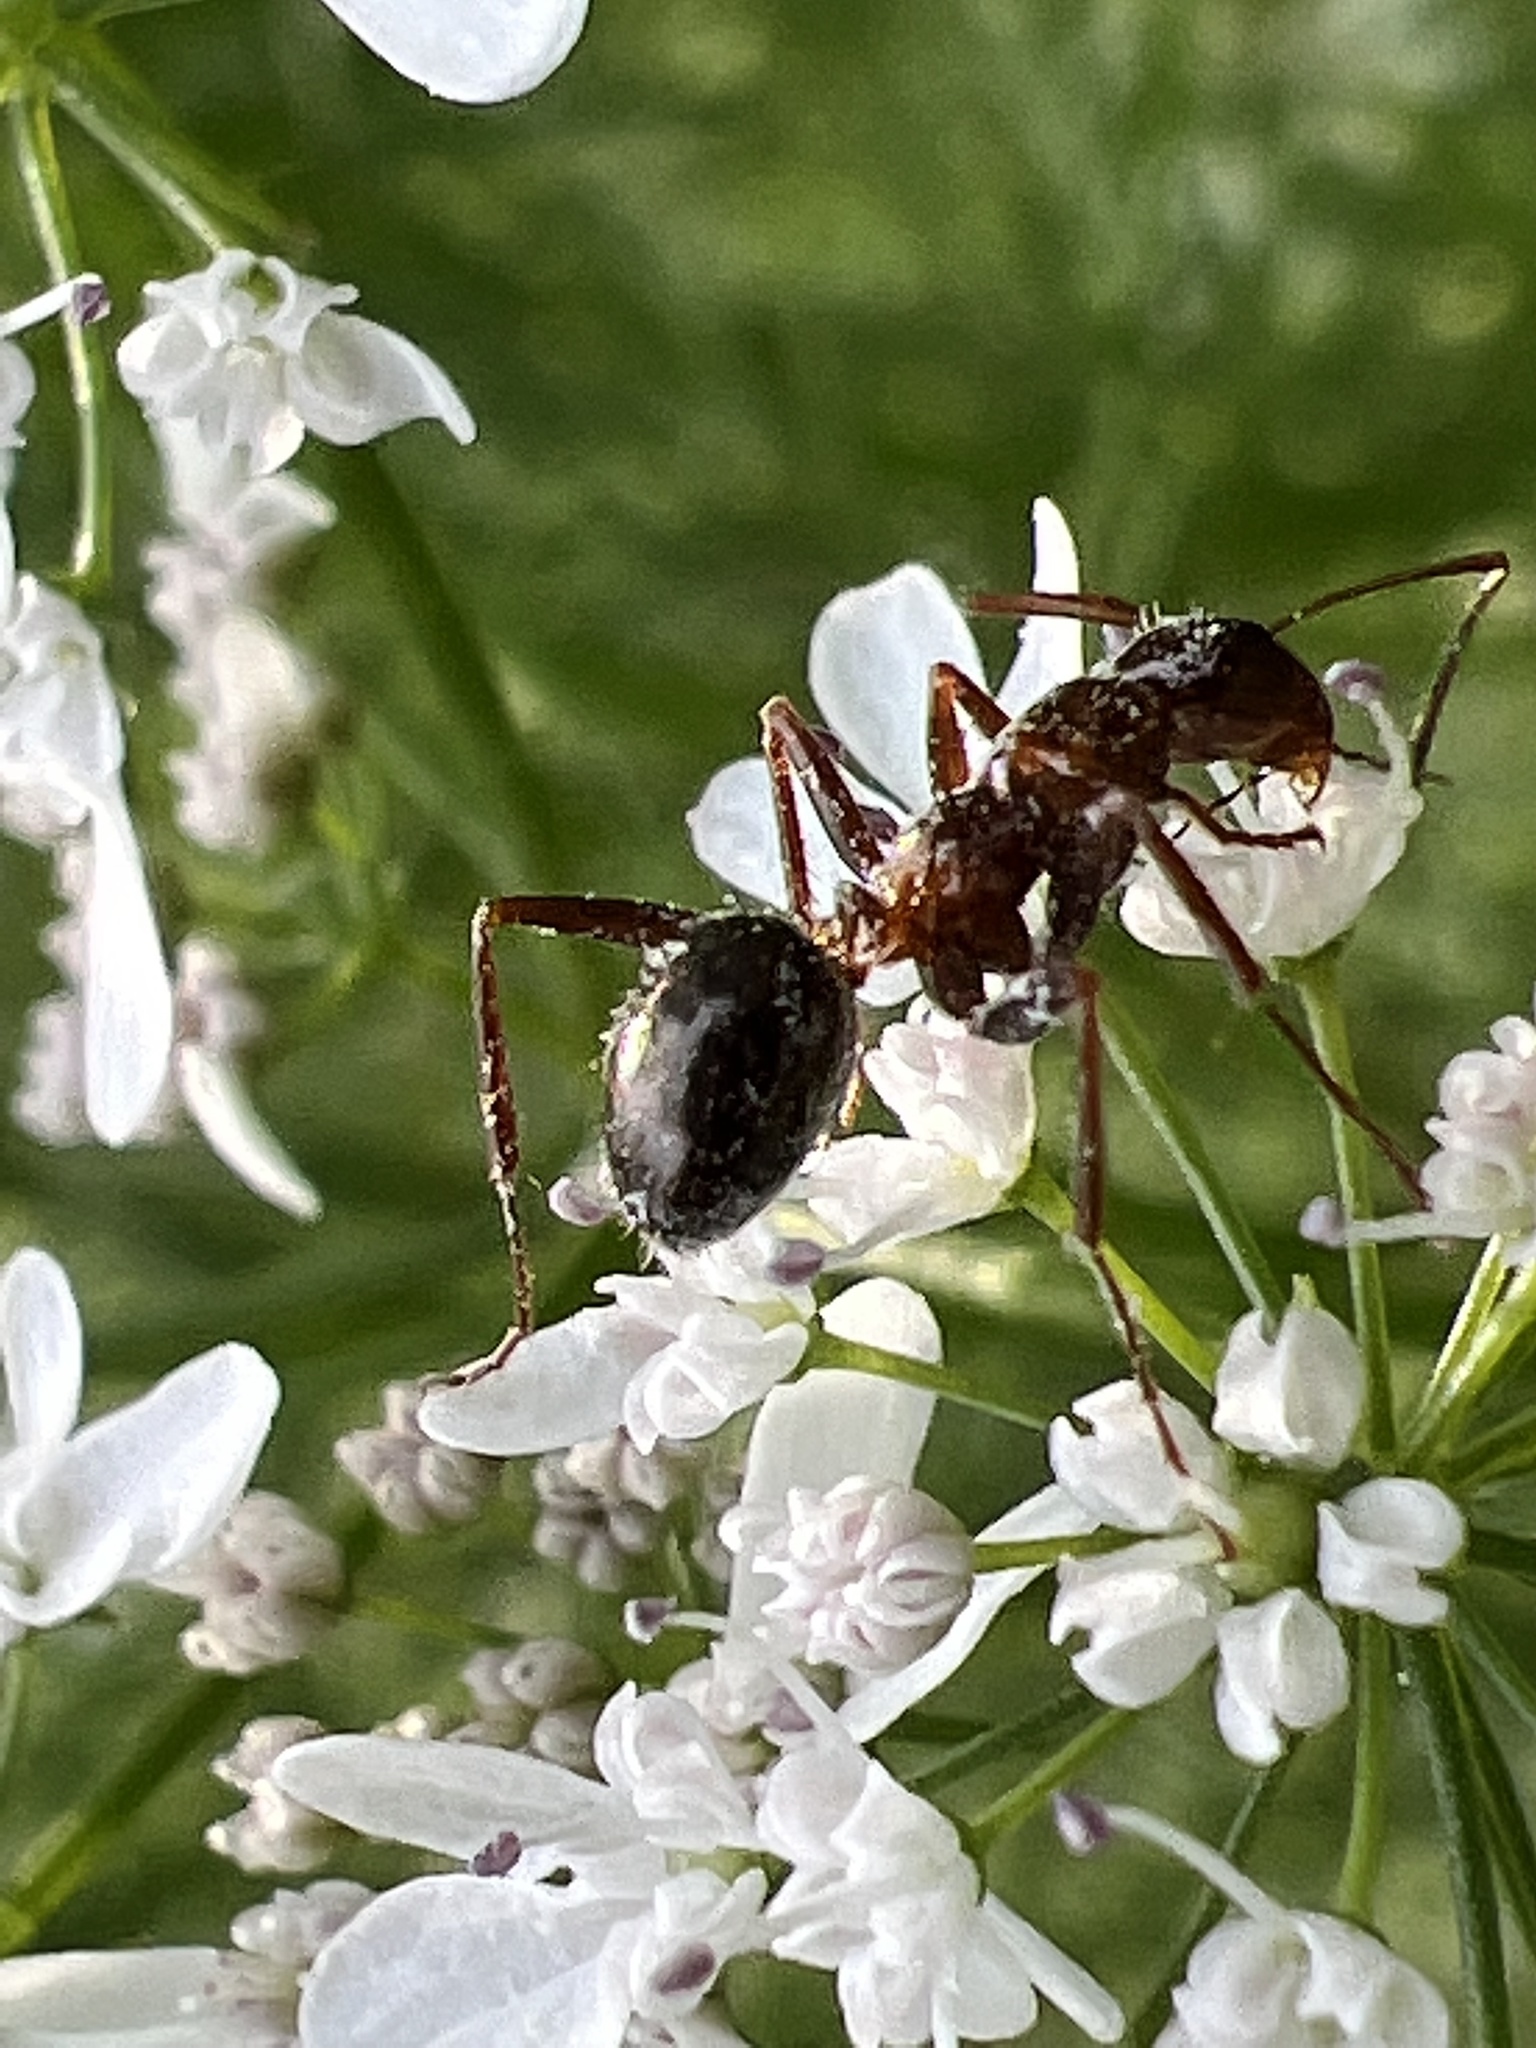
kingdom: Animalia
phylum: Arthropoda
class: Insecta
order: Hymenoptera
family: Formicidae
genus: Formica
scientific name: Formica incerta
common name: Uncertain field ant
